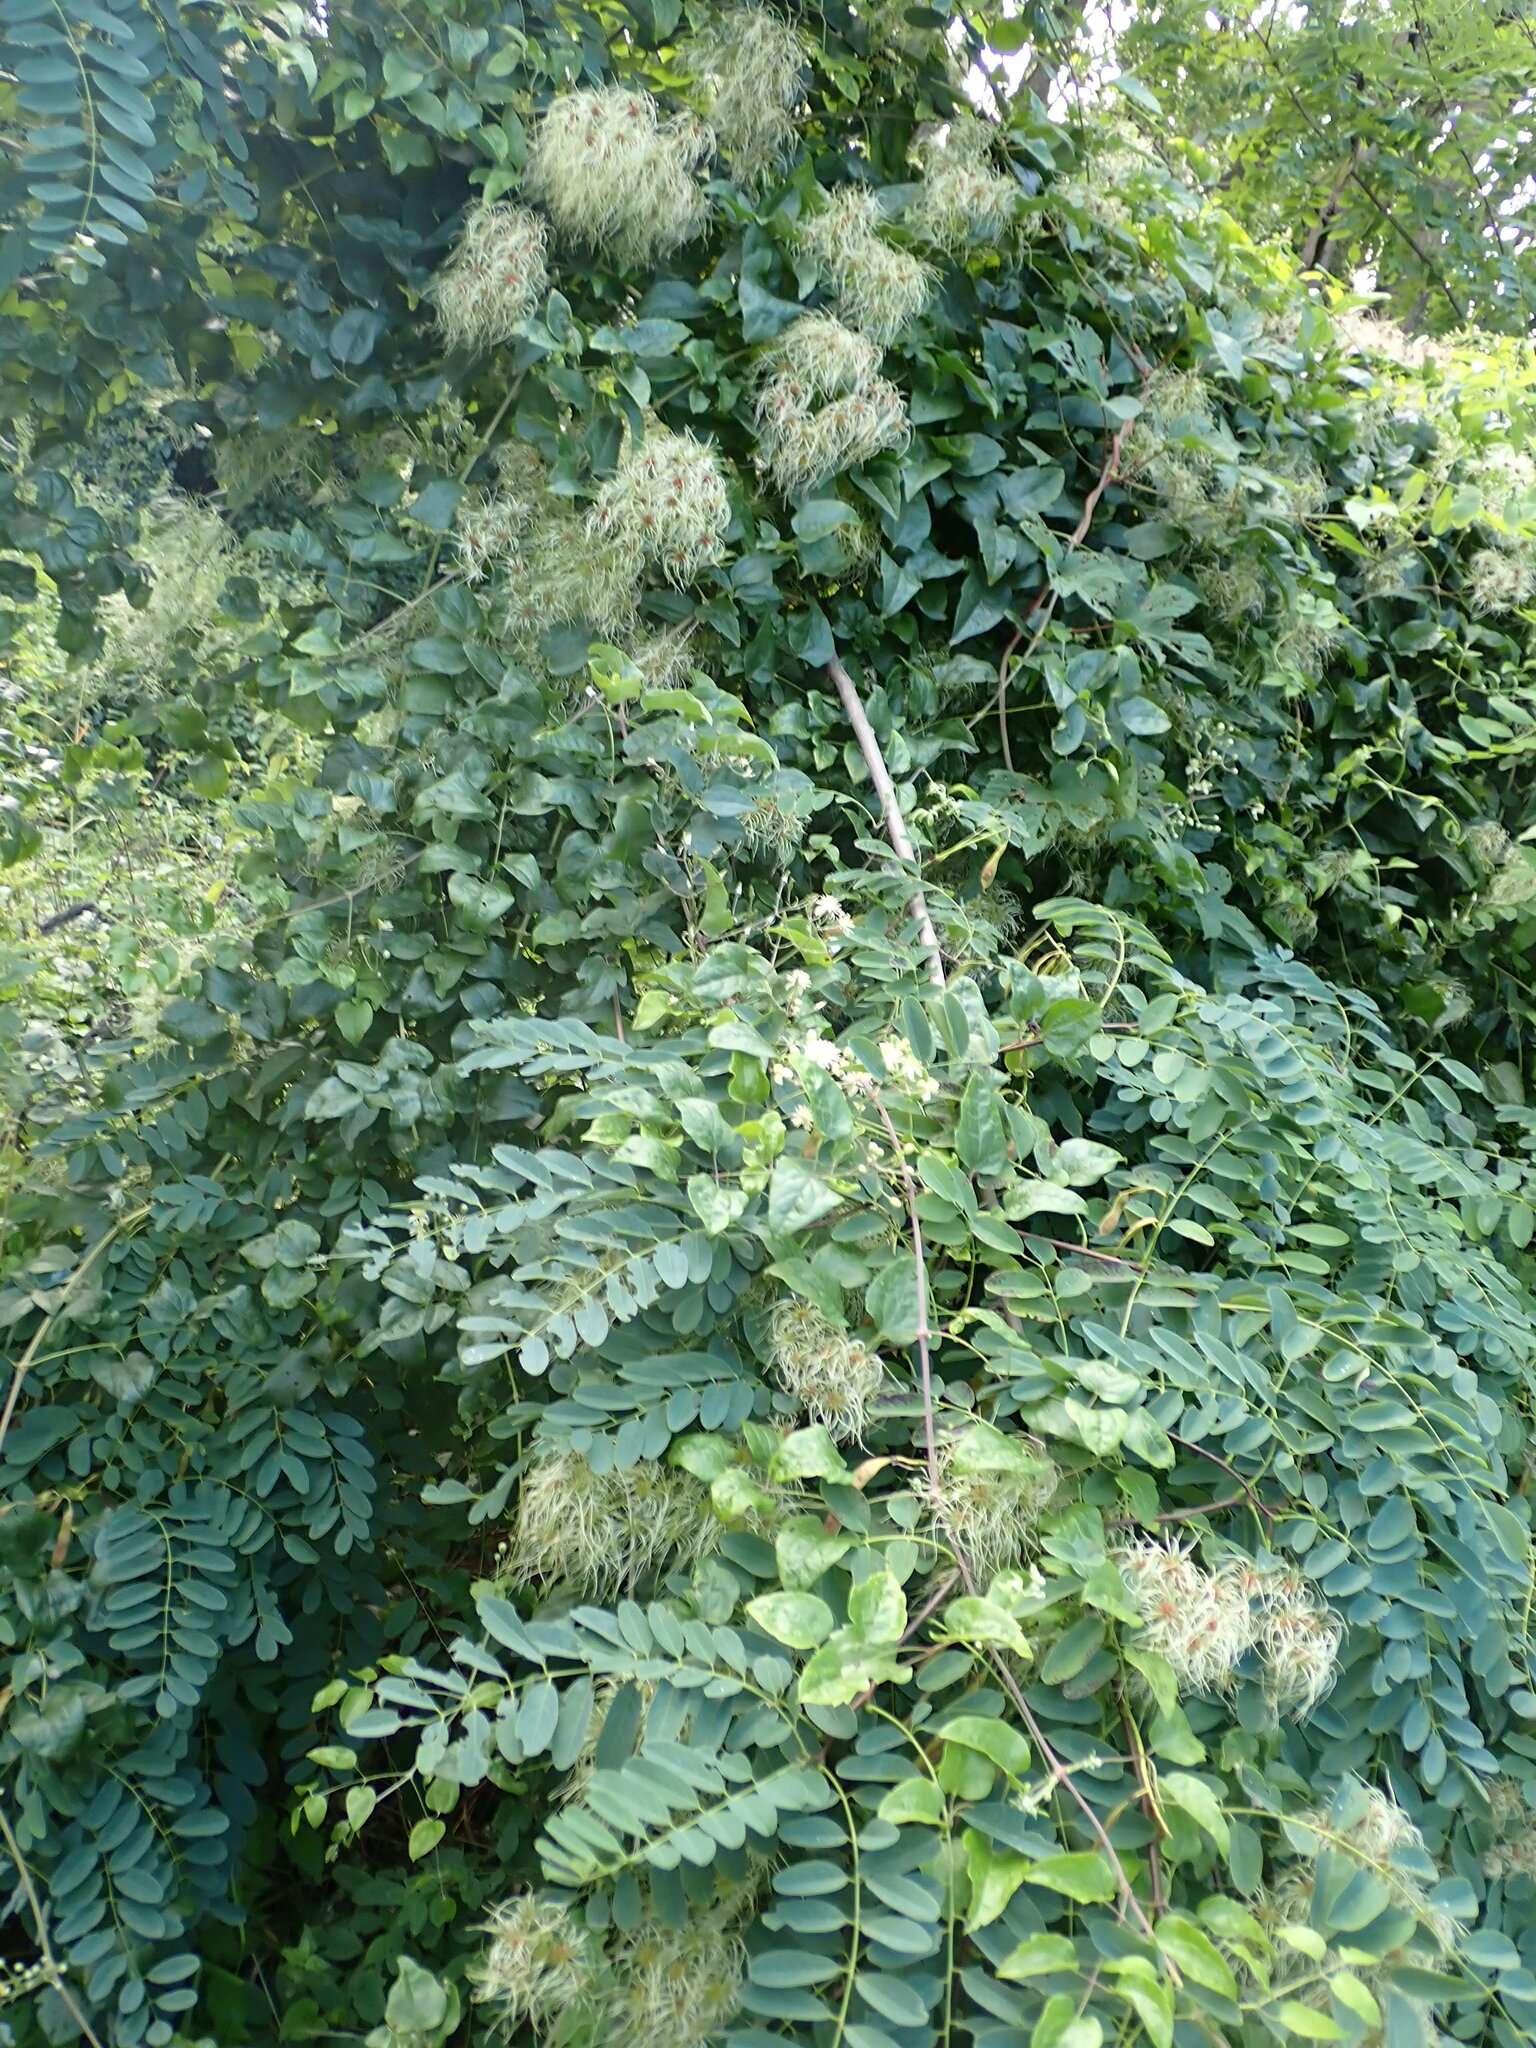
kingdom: Plantae
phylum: Tracheophyta
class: Magnoliopsida
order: Ranunculales
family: Ranunculaceae
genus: Clematis
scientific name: Clematis vitalba
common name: Evergreen clematis
